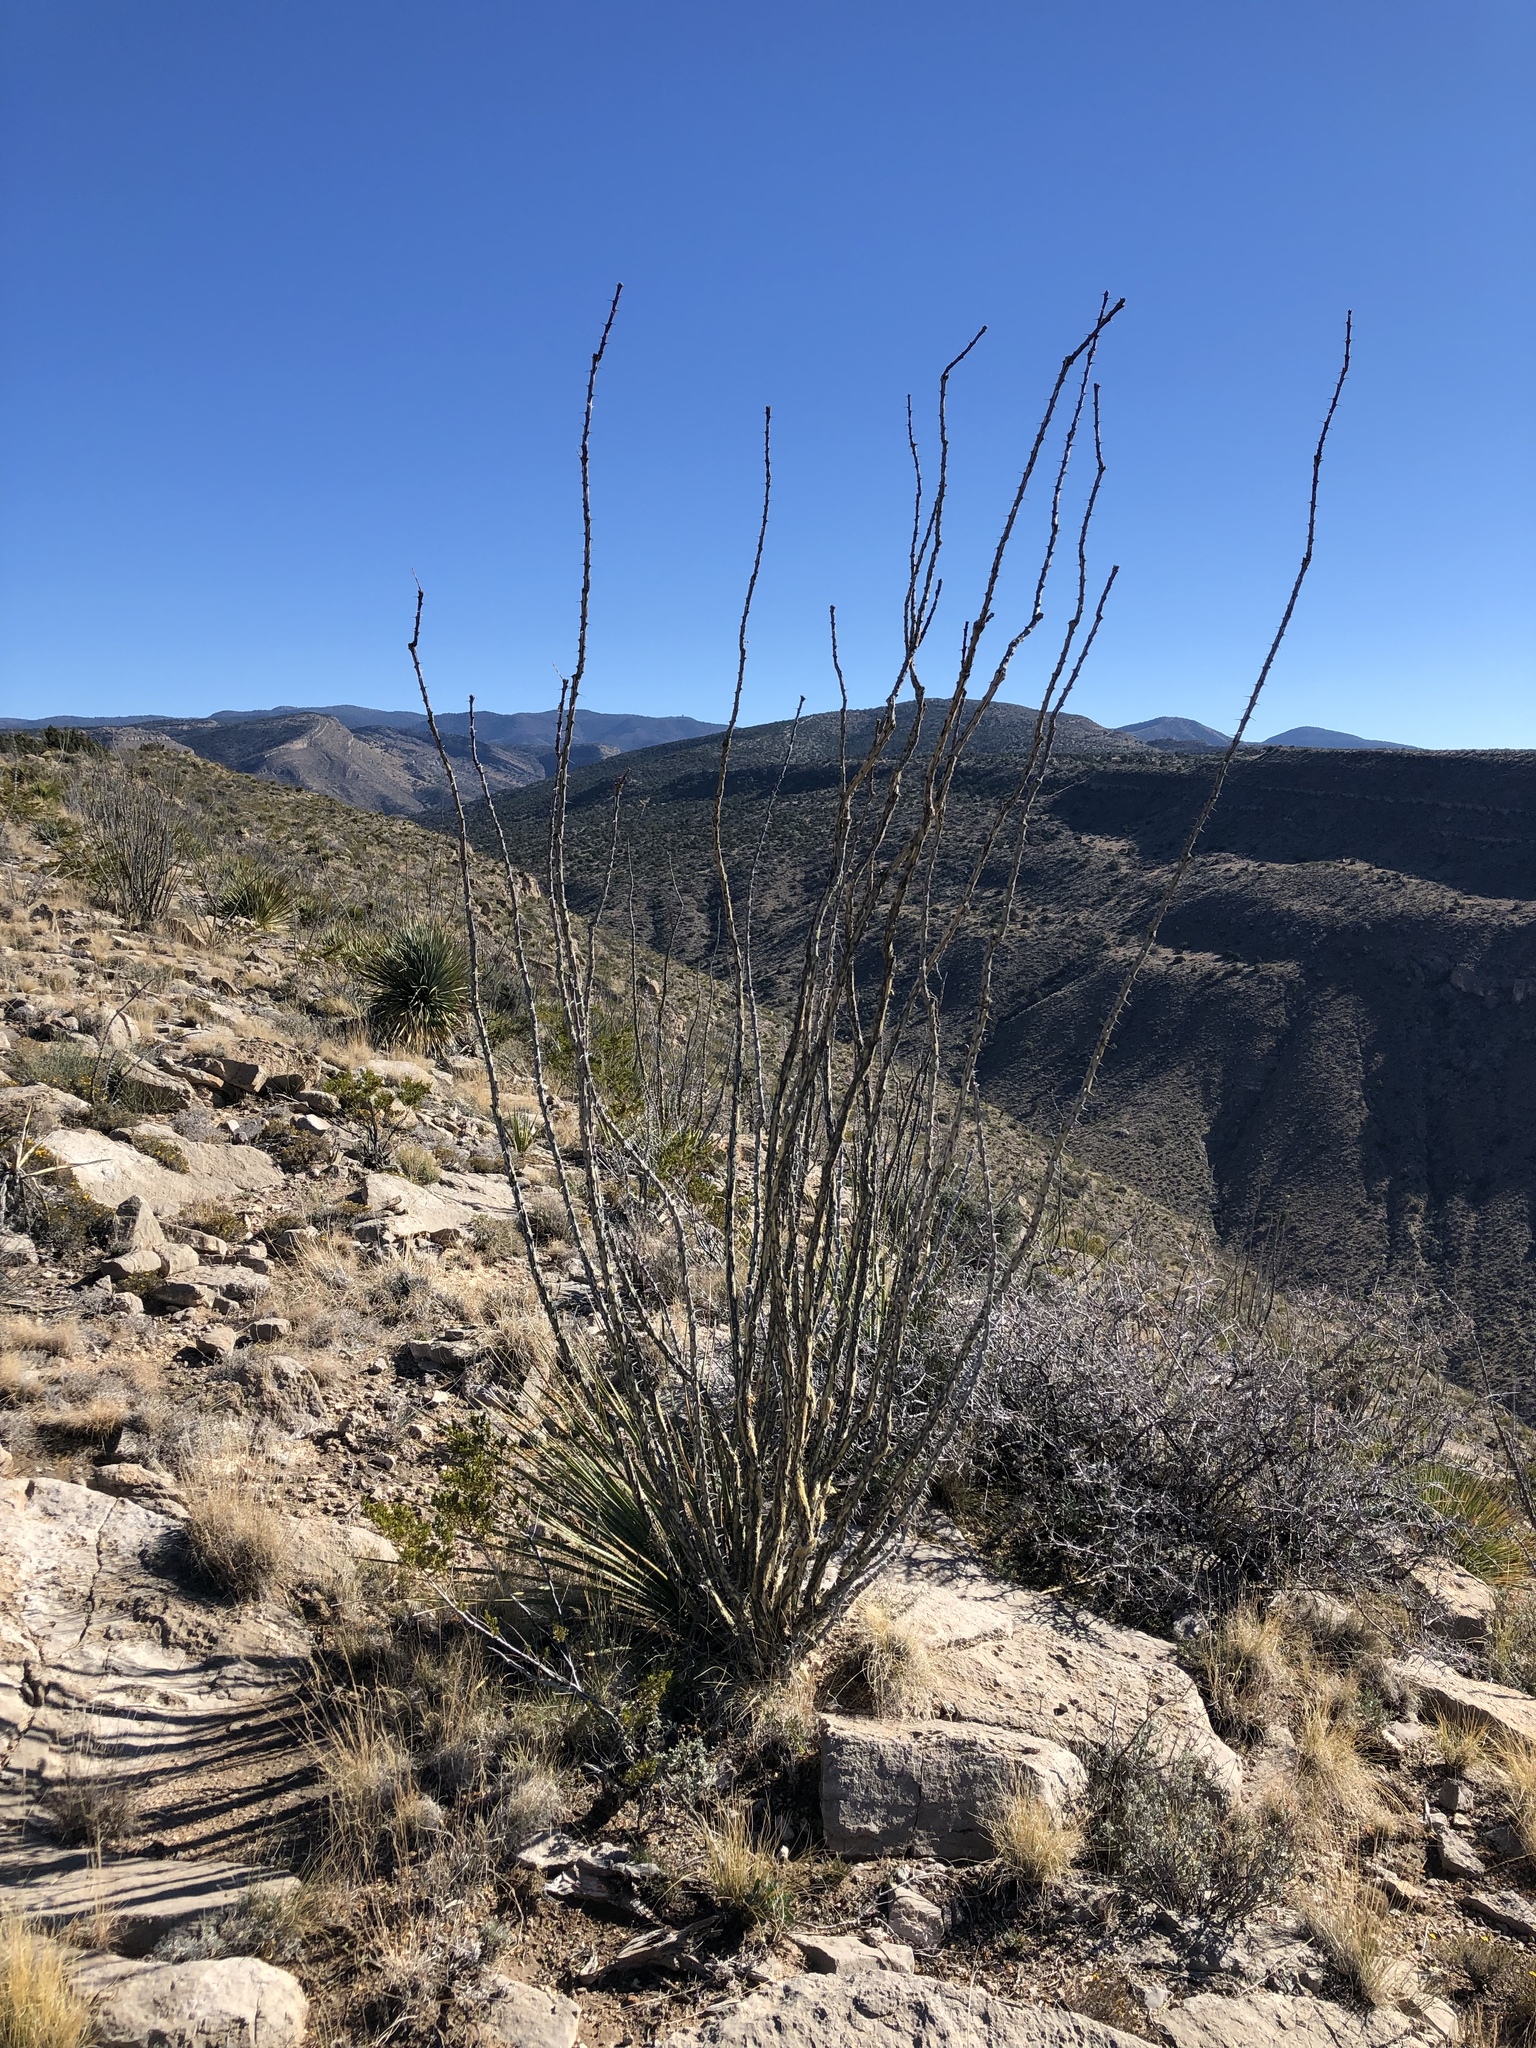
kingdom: Plantae
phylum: Tracheophyta
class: Magnoliopsida
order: Ericales
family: Fouquieriaceae
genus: Fouquieria
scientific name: Fouquieria splendens
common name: Vine-cactus
